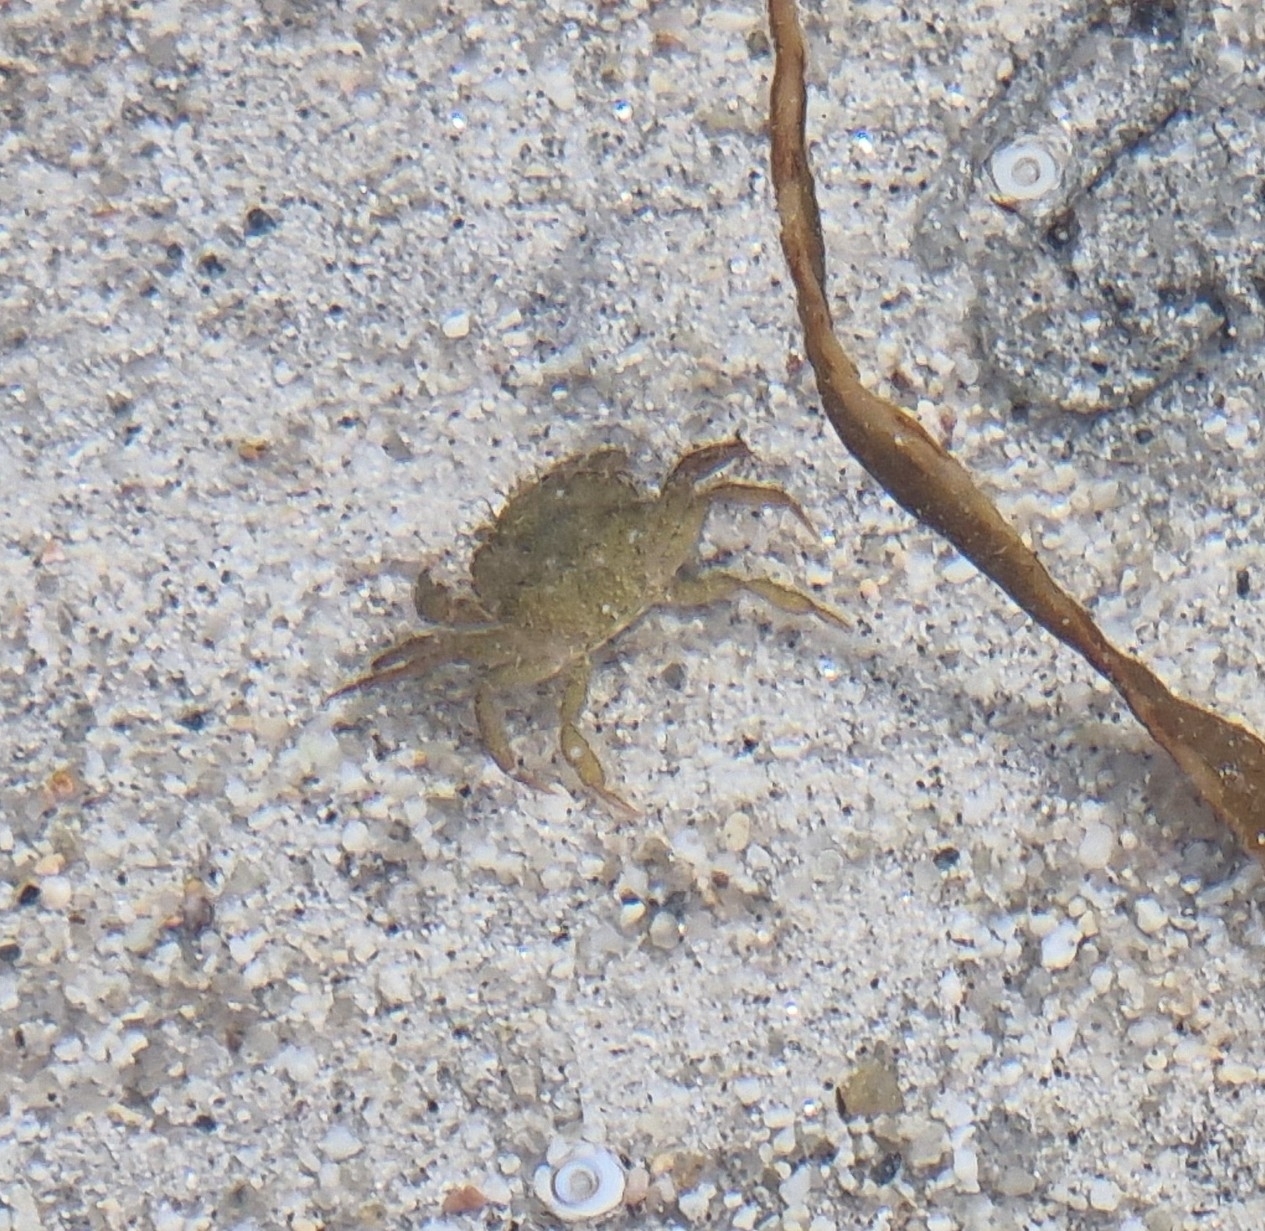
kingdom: Animalia
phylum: Arthropoda
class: Malacostraca
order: Decapoda
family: Carcinidae
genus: Carcinus
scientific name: Carcinus maenas
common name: European green crab
